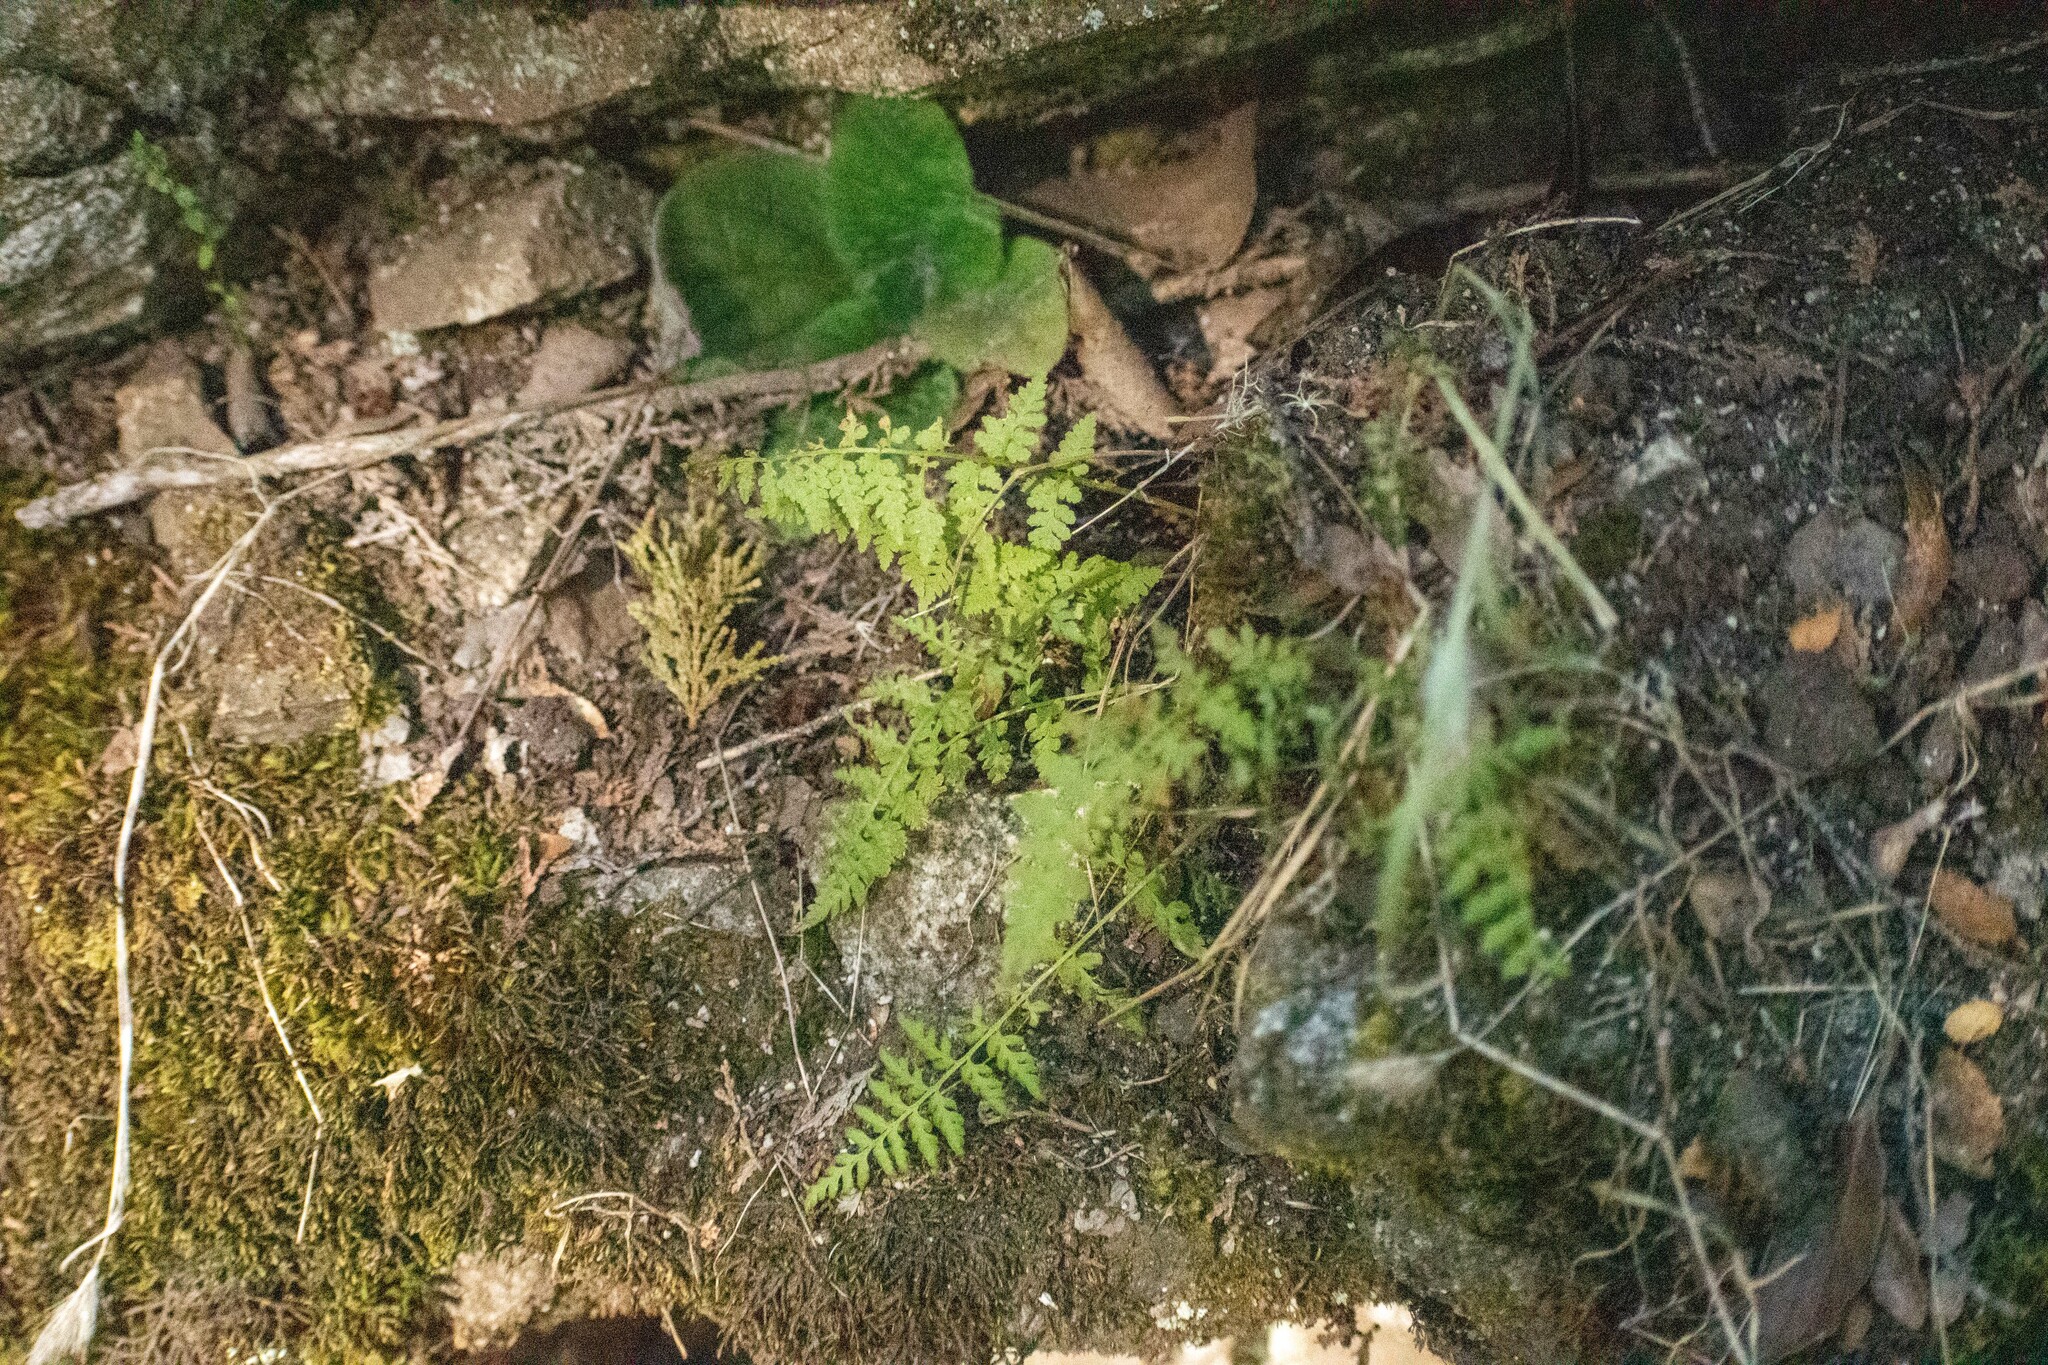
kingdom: Plantae
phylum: Tracheophyta
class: Polypodiopsida
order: Polypodiales
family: Cystopteridaceae
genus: Cystopteris
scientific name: Cystopteris fragilis
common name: Brittle bladder fern
